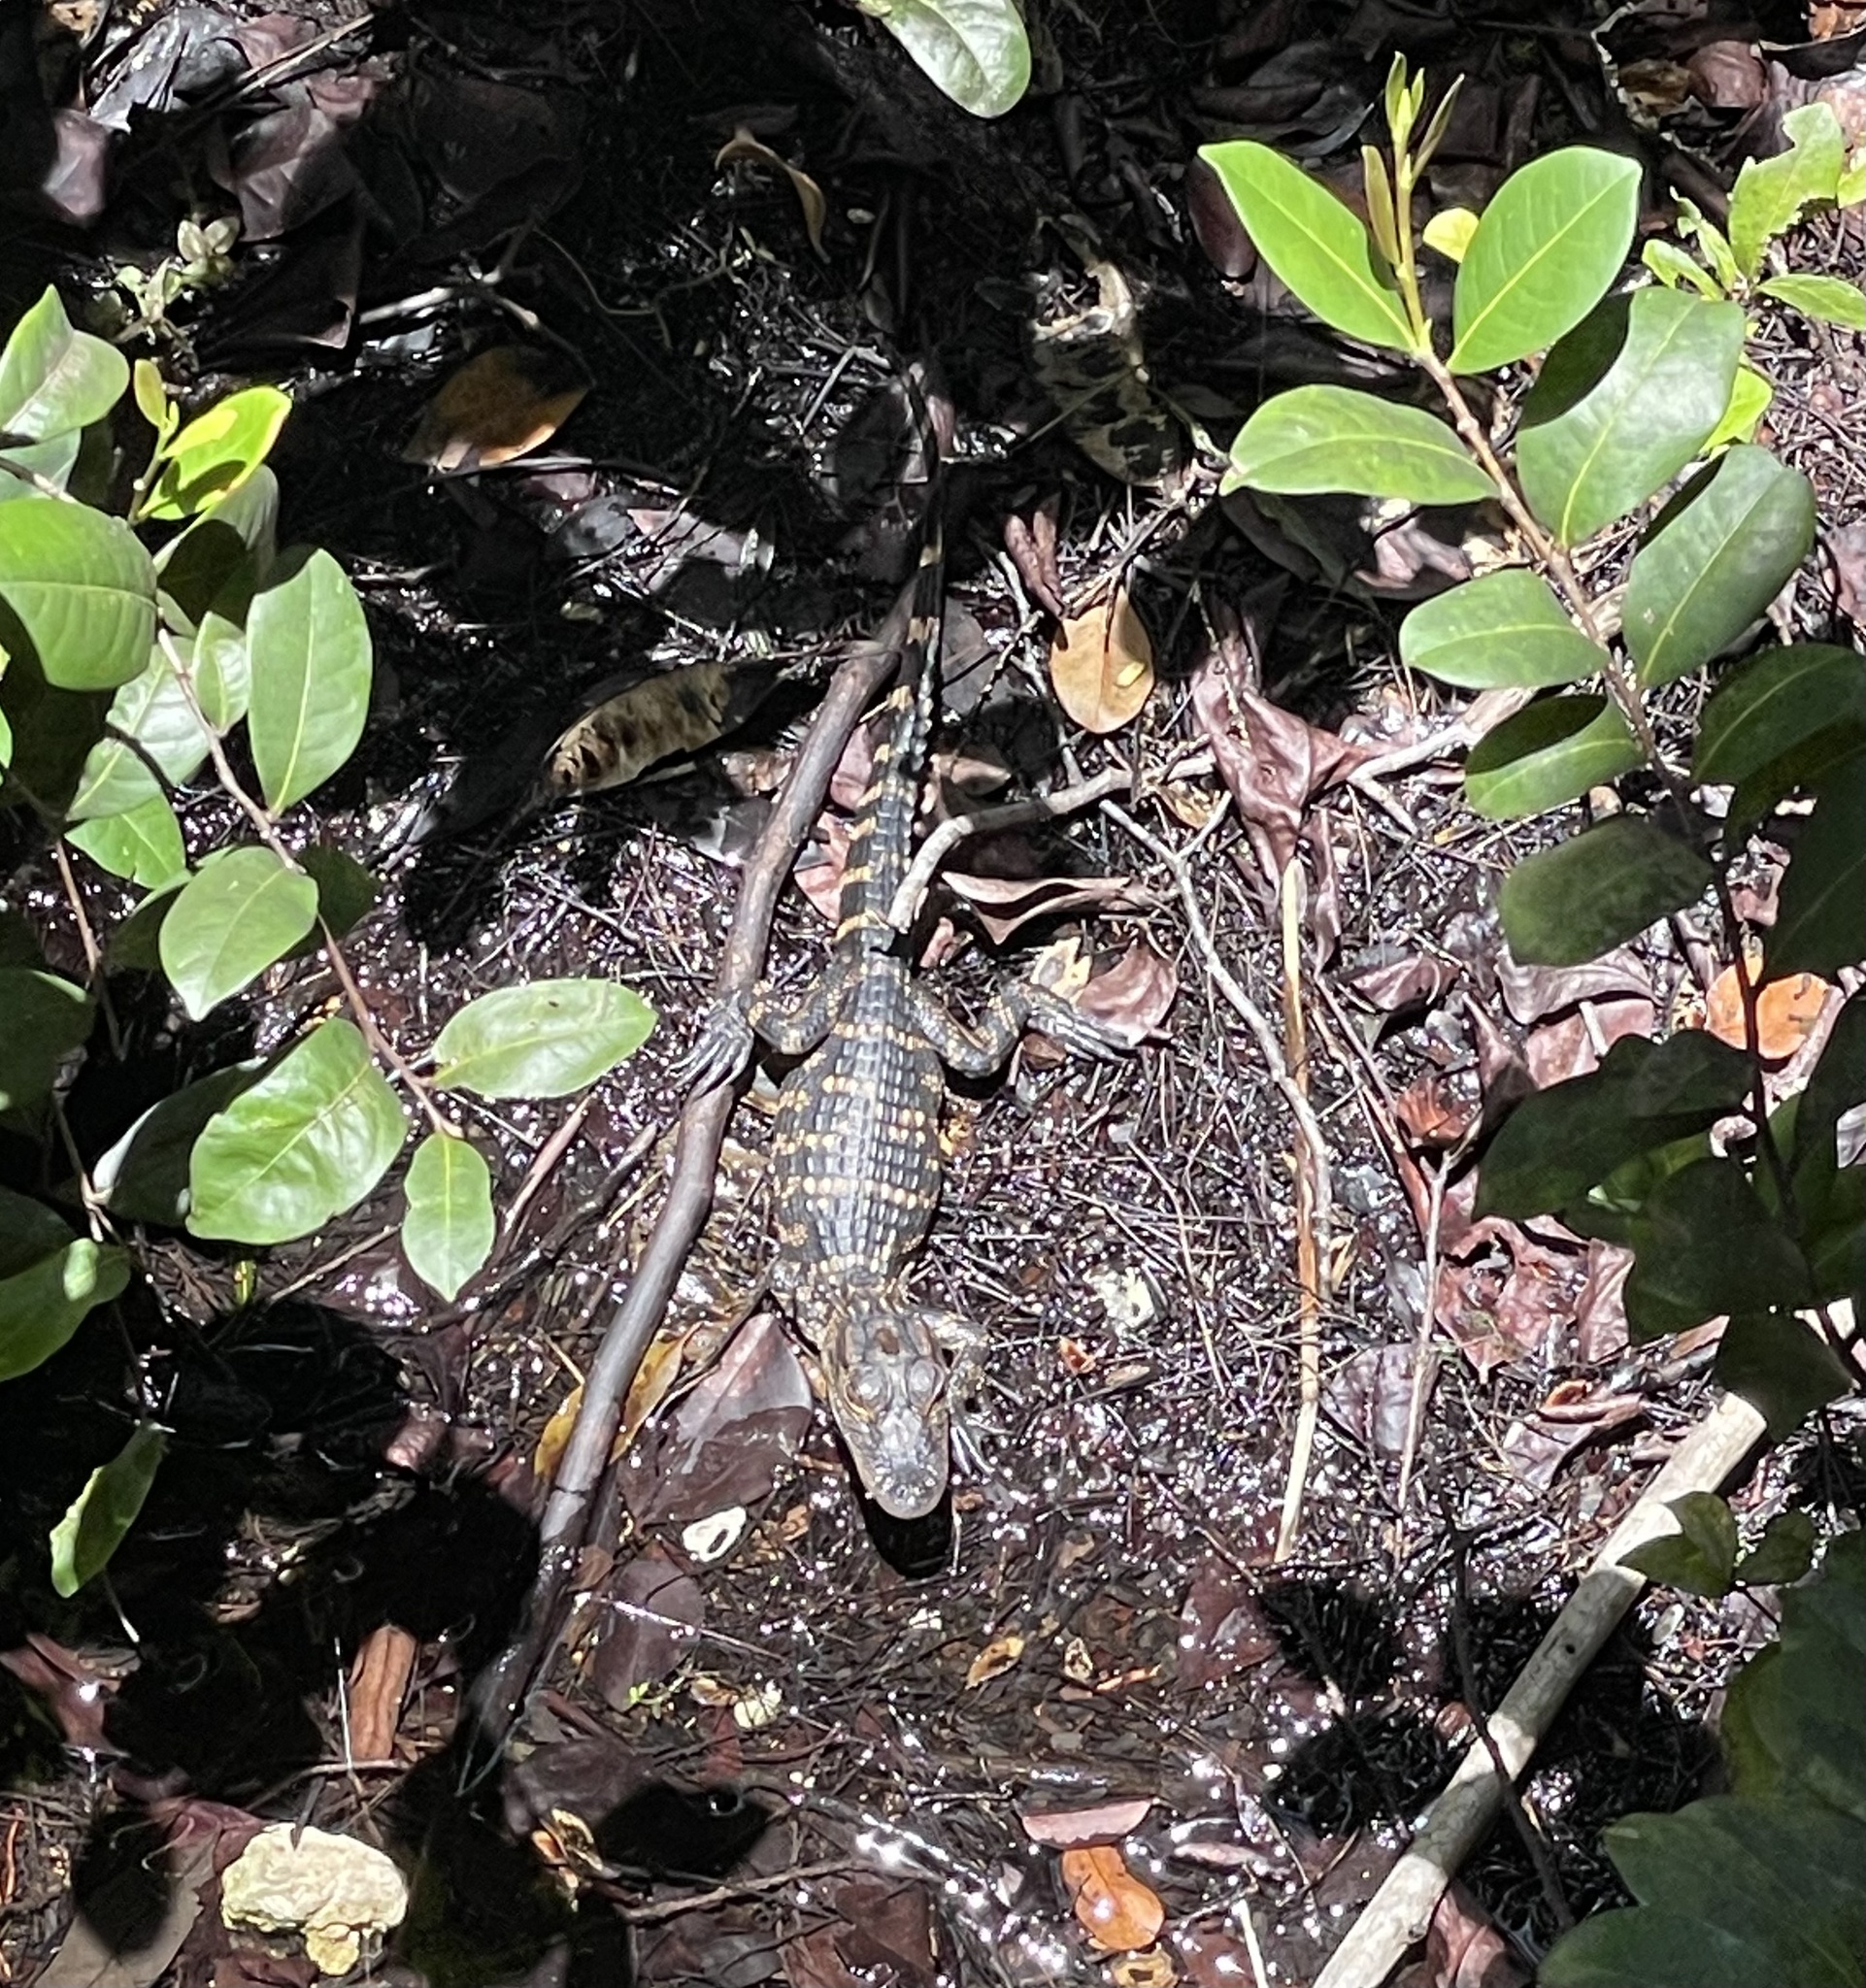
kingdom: Animalia
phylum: Chordata
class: Crocodylia
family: Alligatoridae
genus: Alligator
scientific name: Alligator mississippiensis
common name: American alligator
